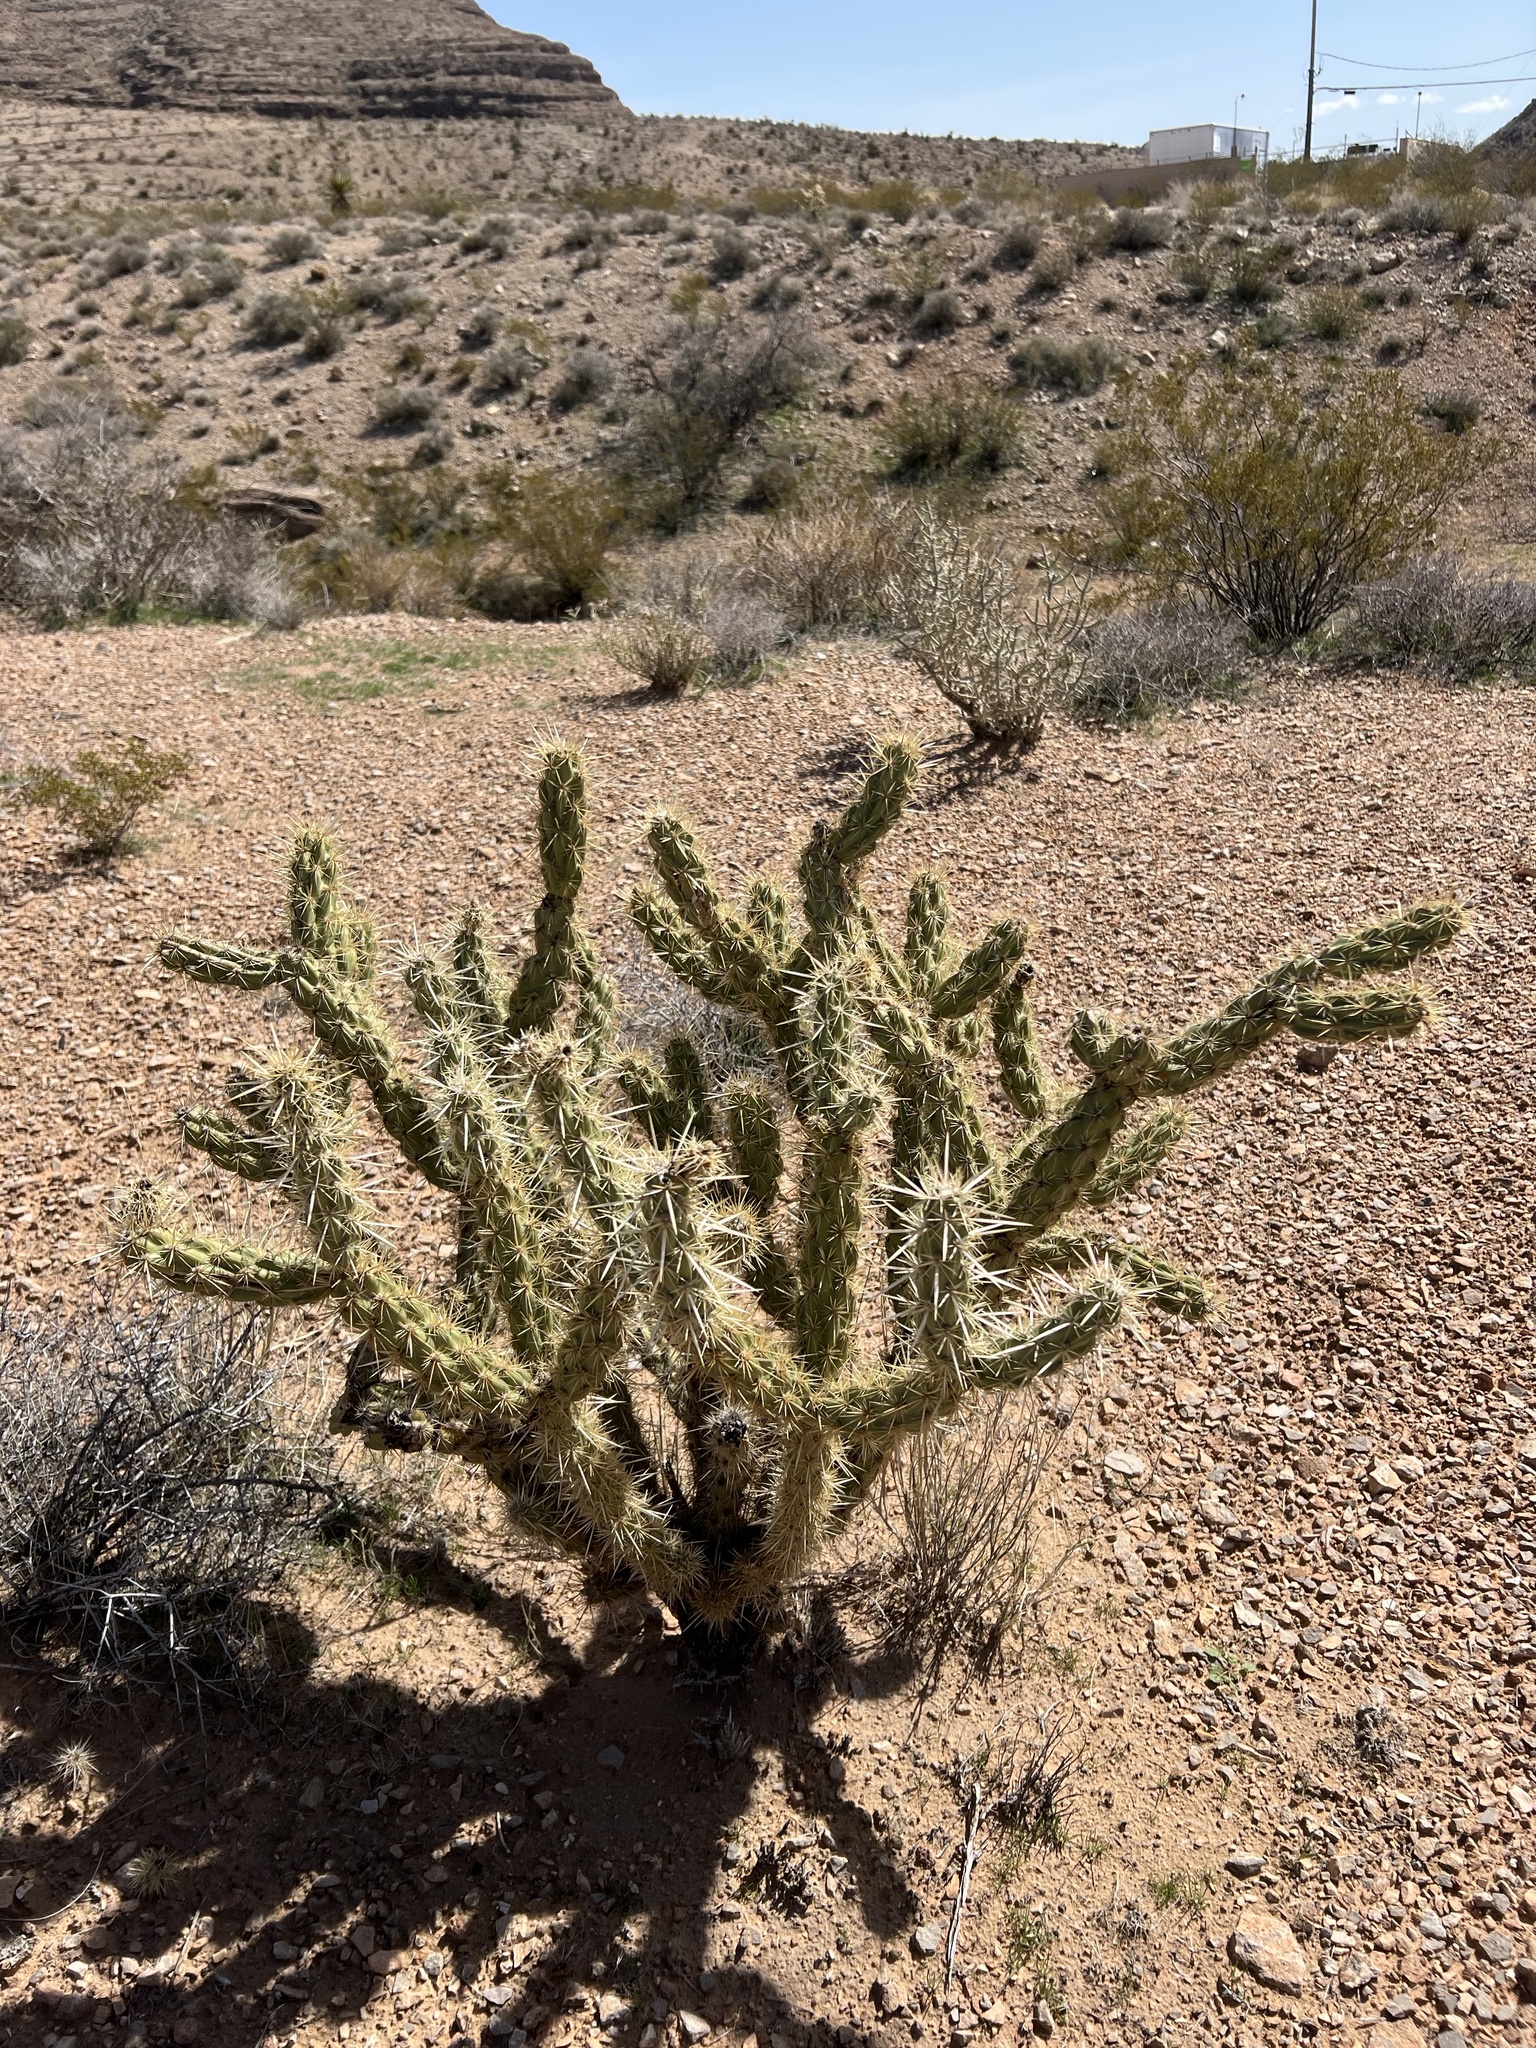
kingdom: Plantae
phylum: Tracheophyta
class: Magnoliopsida
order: Caryophyllales
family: Cactaceae
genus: Cylindropuntia
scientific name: Cylindropuntia acanthocarpa
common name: Buckhorn cholla
